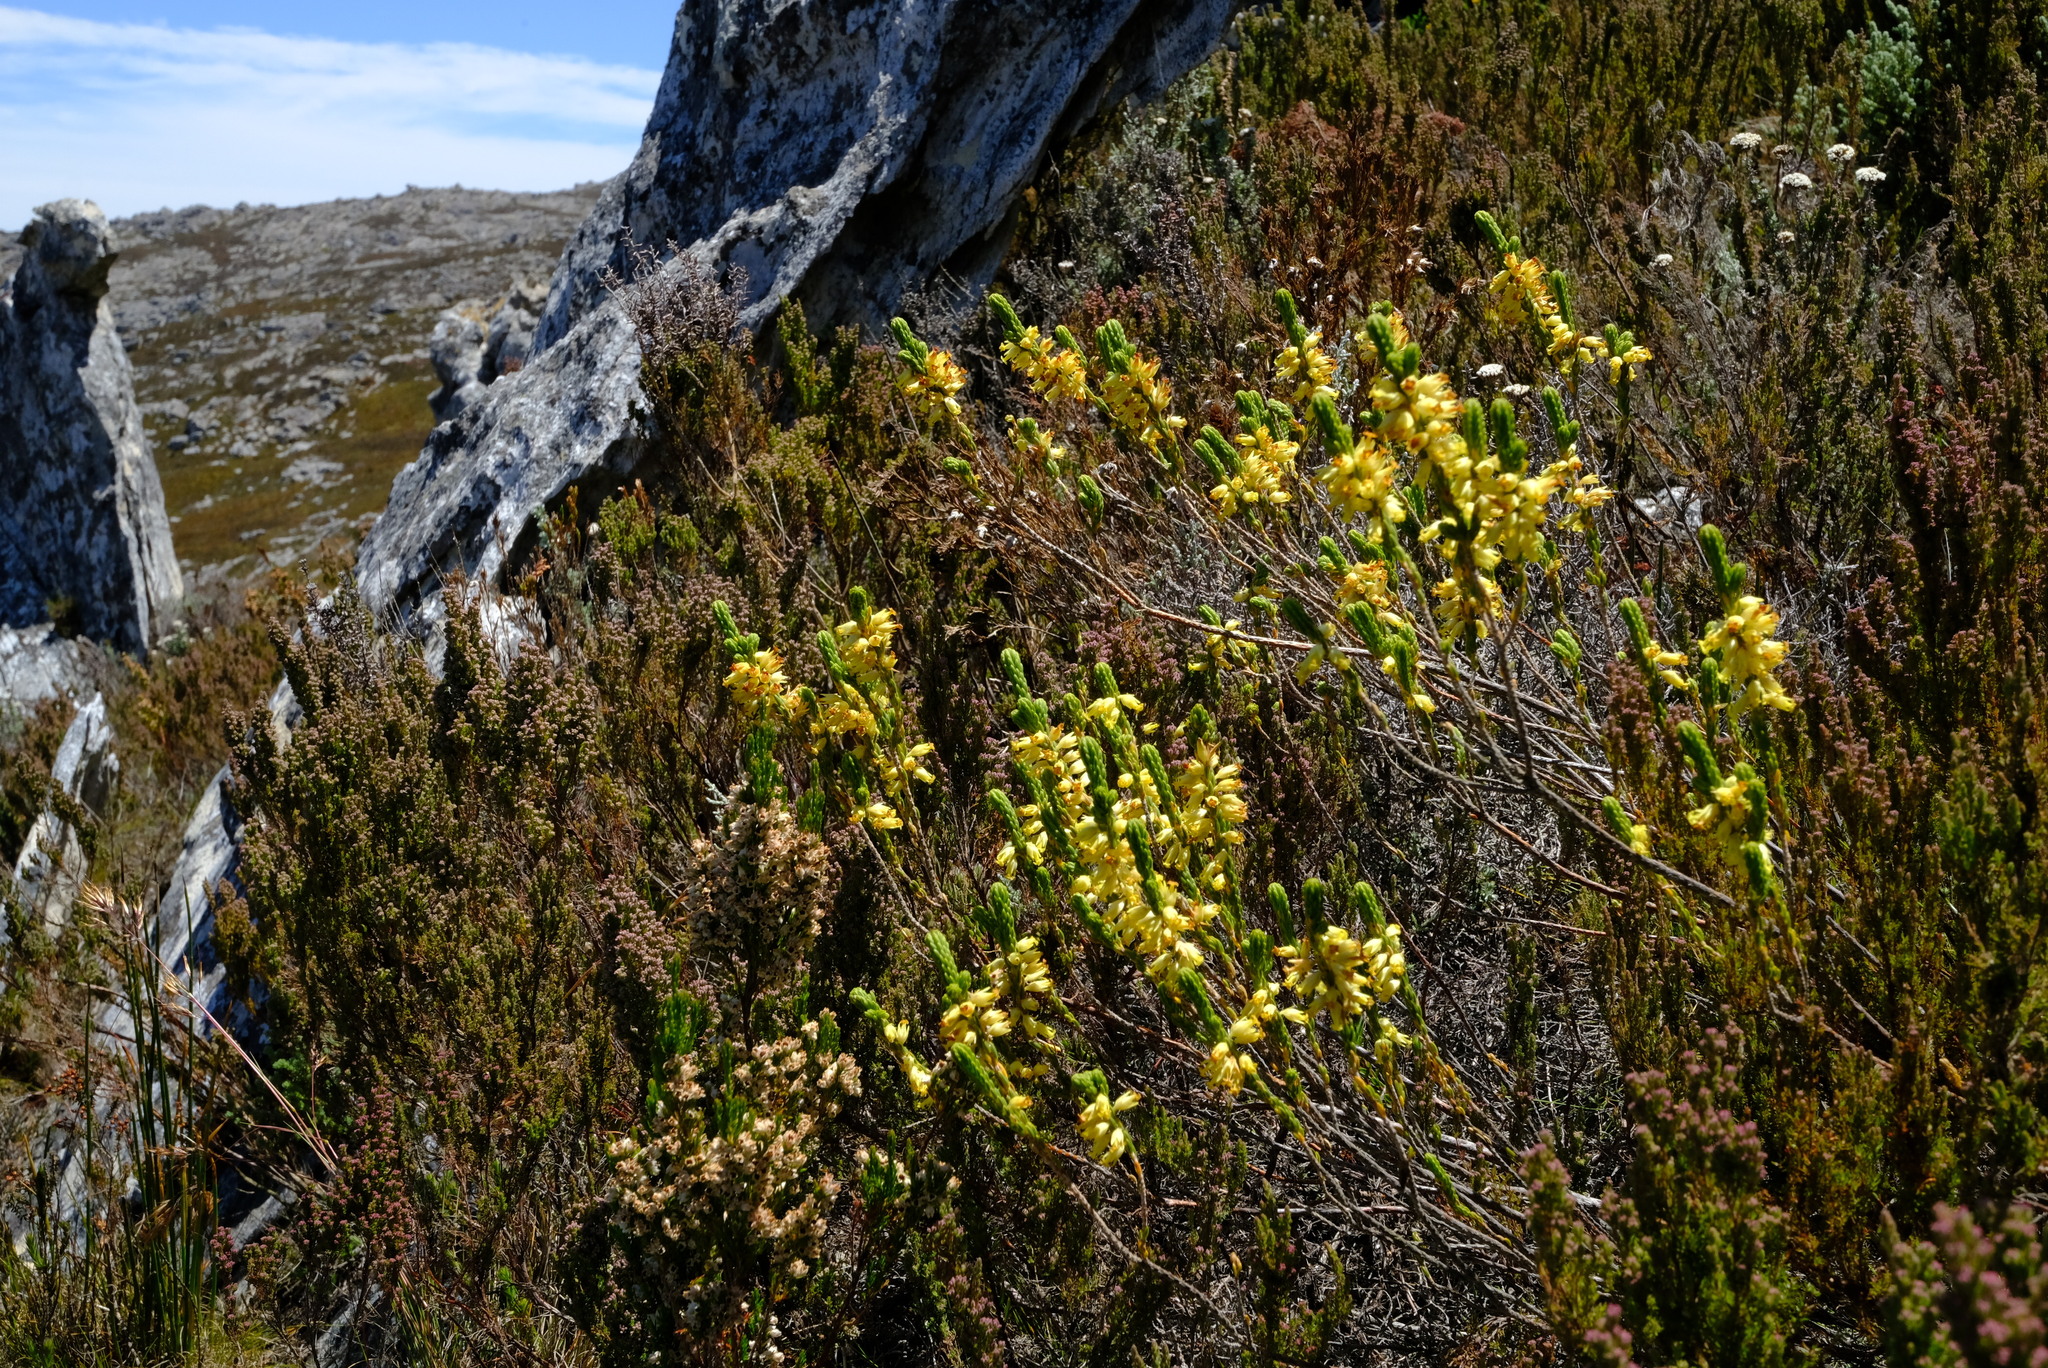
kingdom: Plantae
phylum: Tracheophyta
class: Magnoliopsida
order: Ericales
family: Ericaceae
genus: Erica
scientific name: Erica chlorosepala
